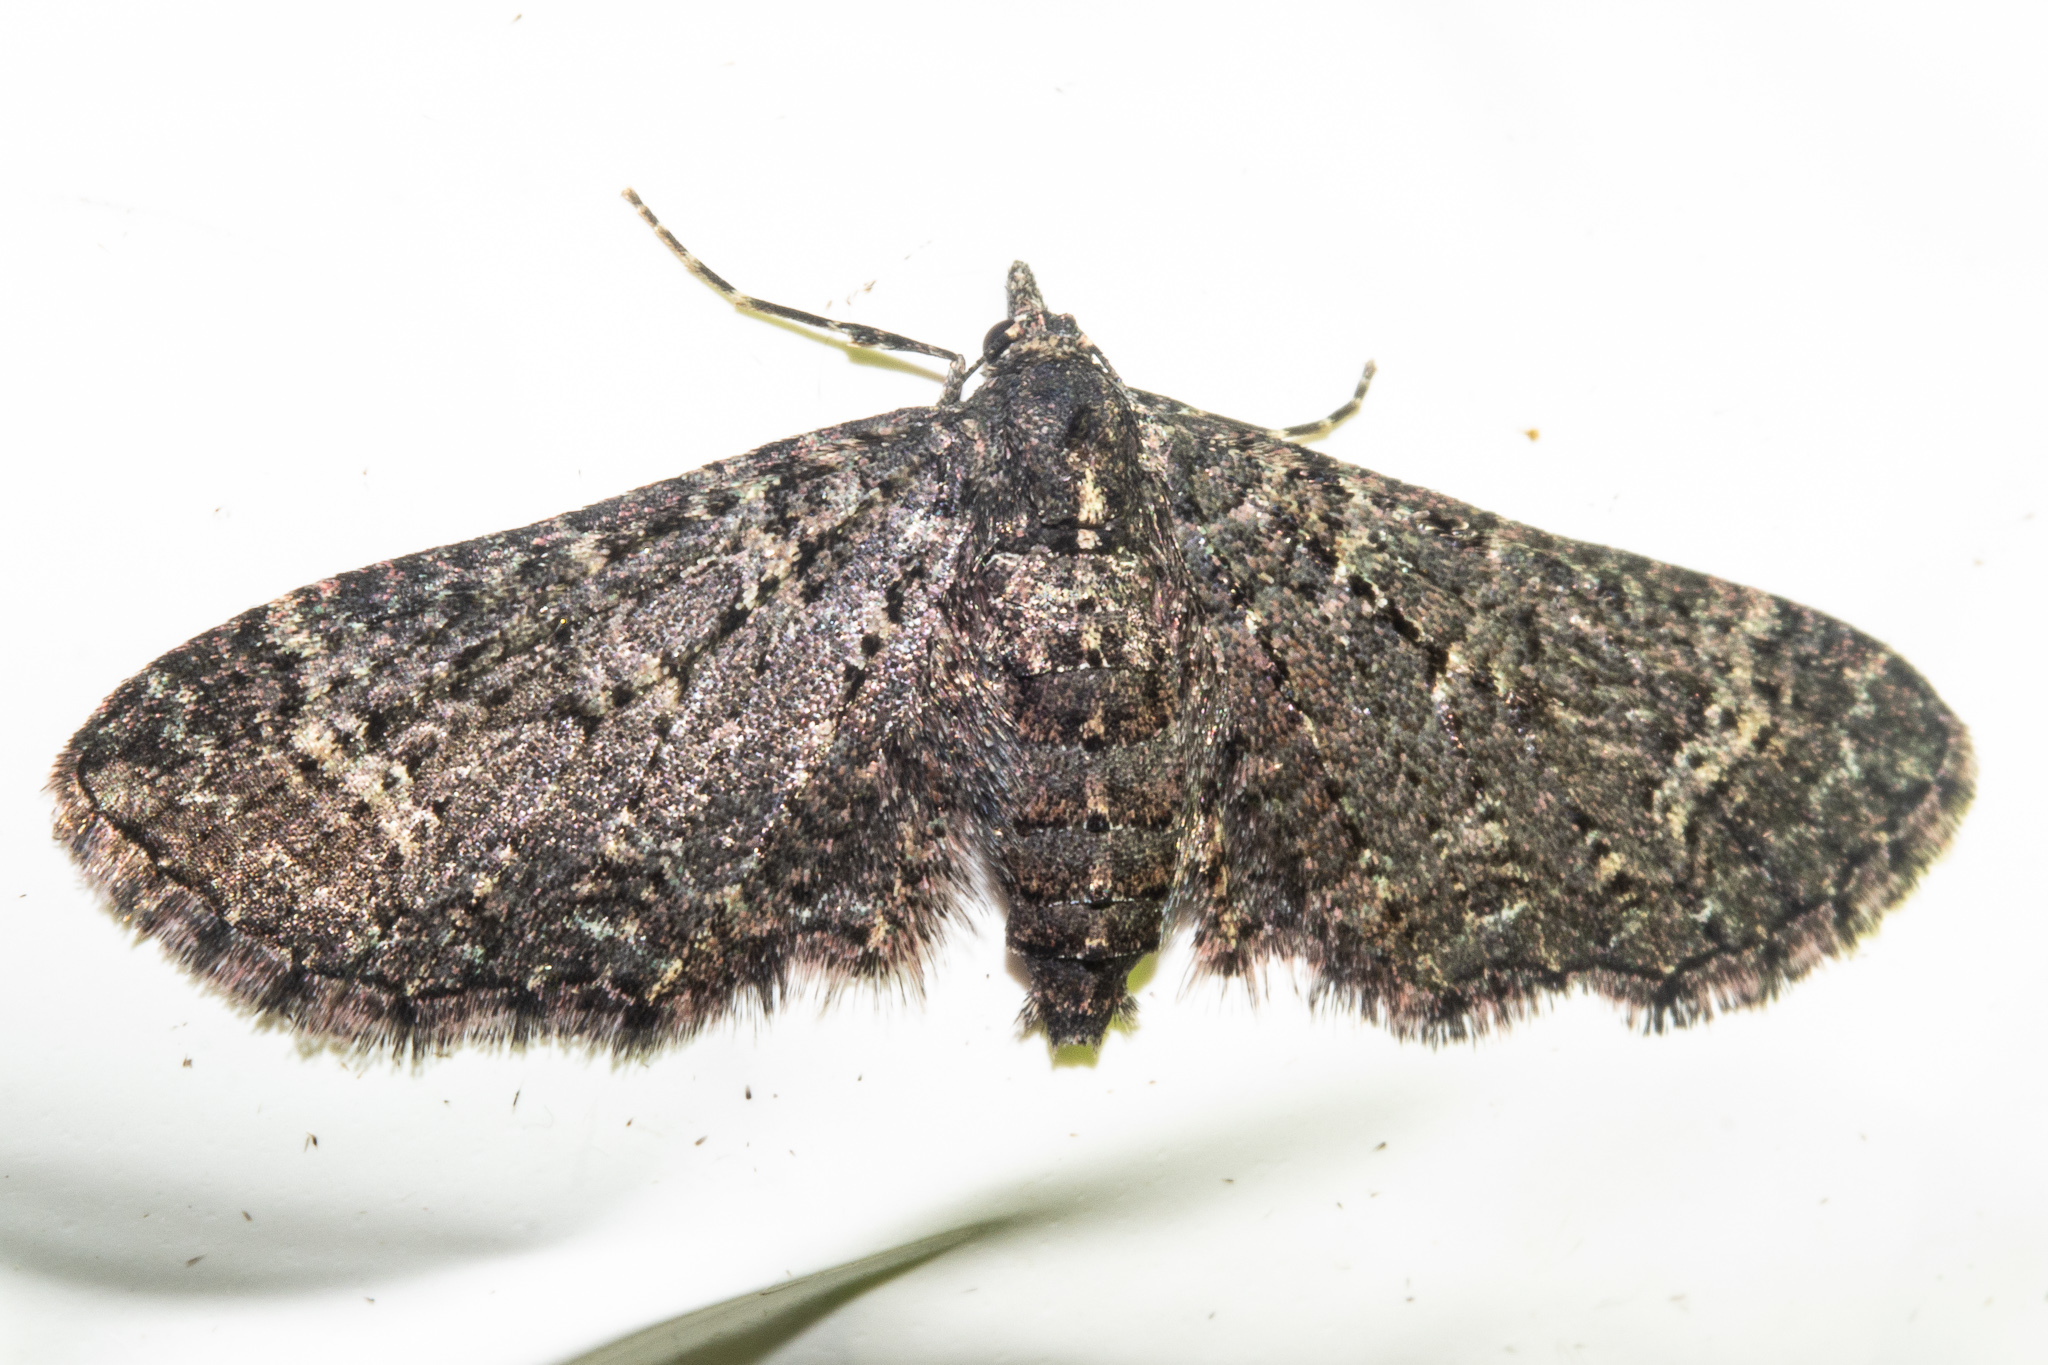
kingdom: Animalia
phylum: Arthropoda
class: Insecta
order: Lepidoptera
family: Geometridae
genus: Pasiphila
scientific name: Pasiphila rubella
